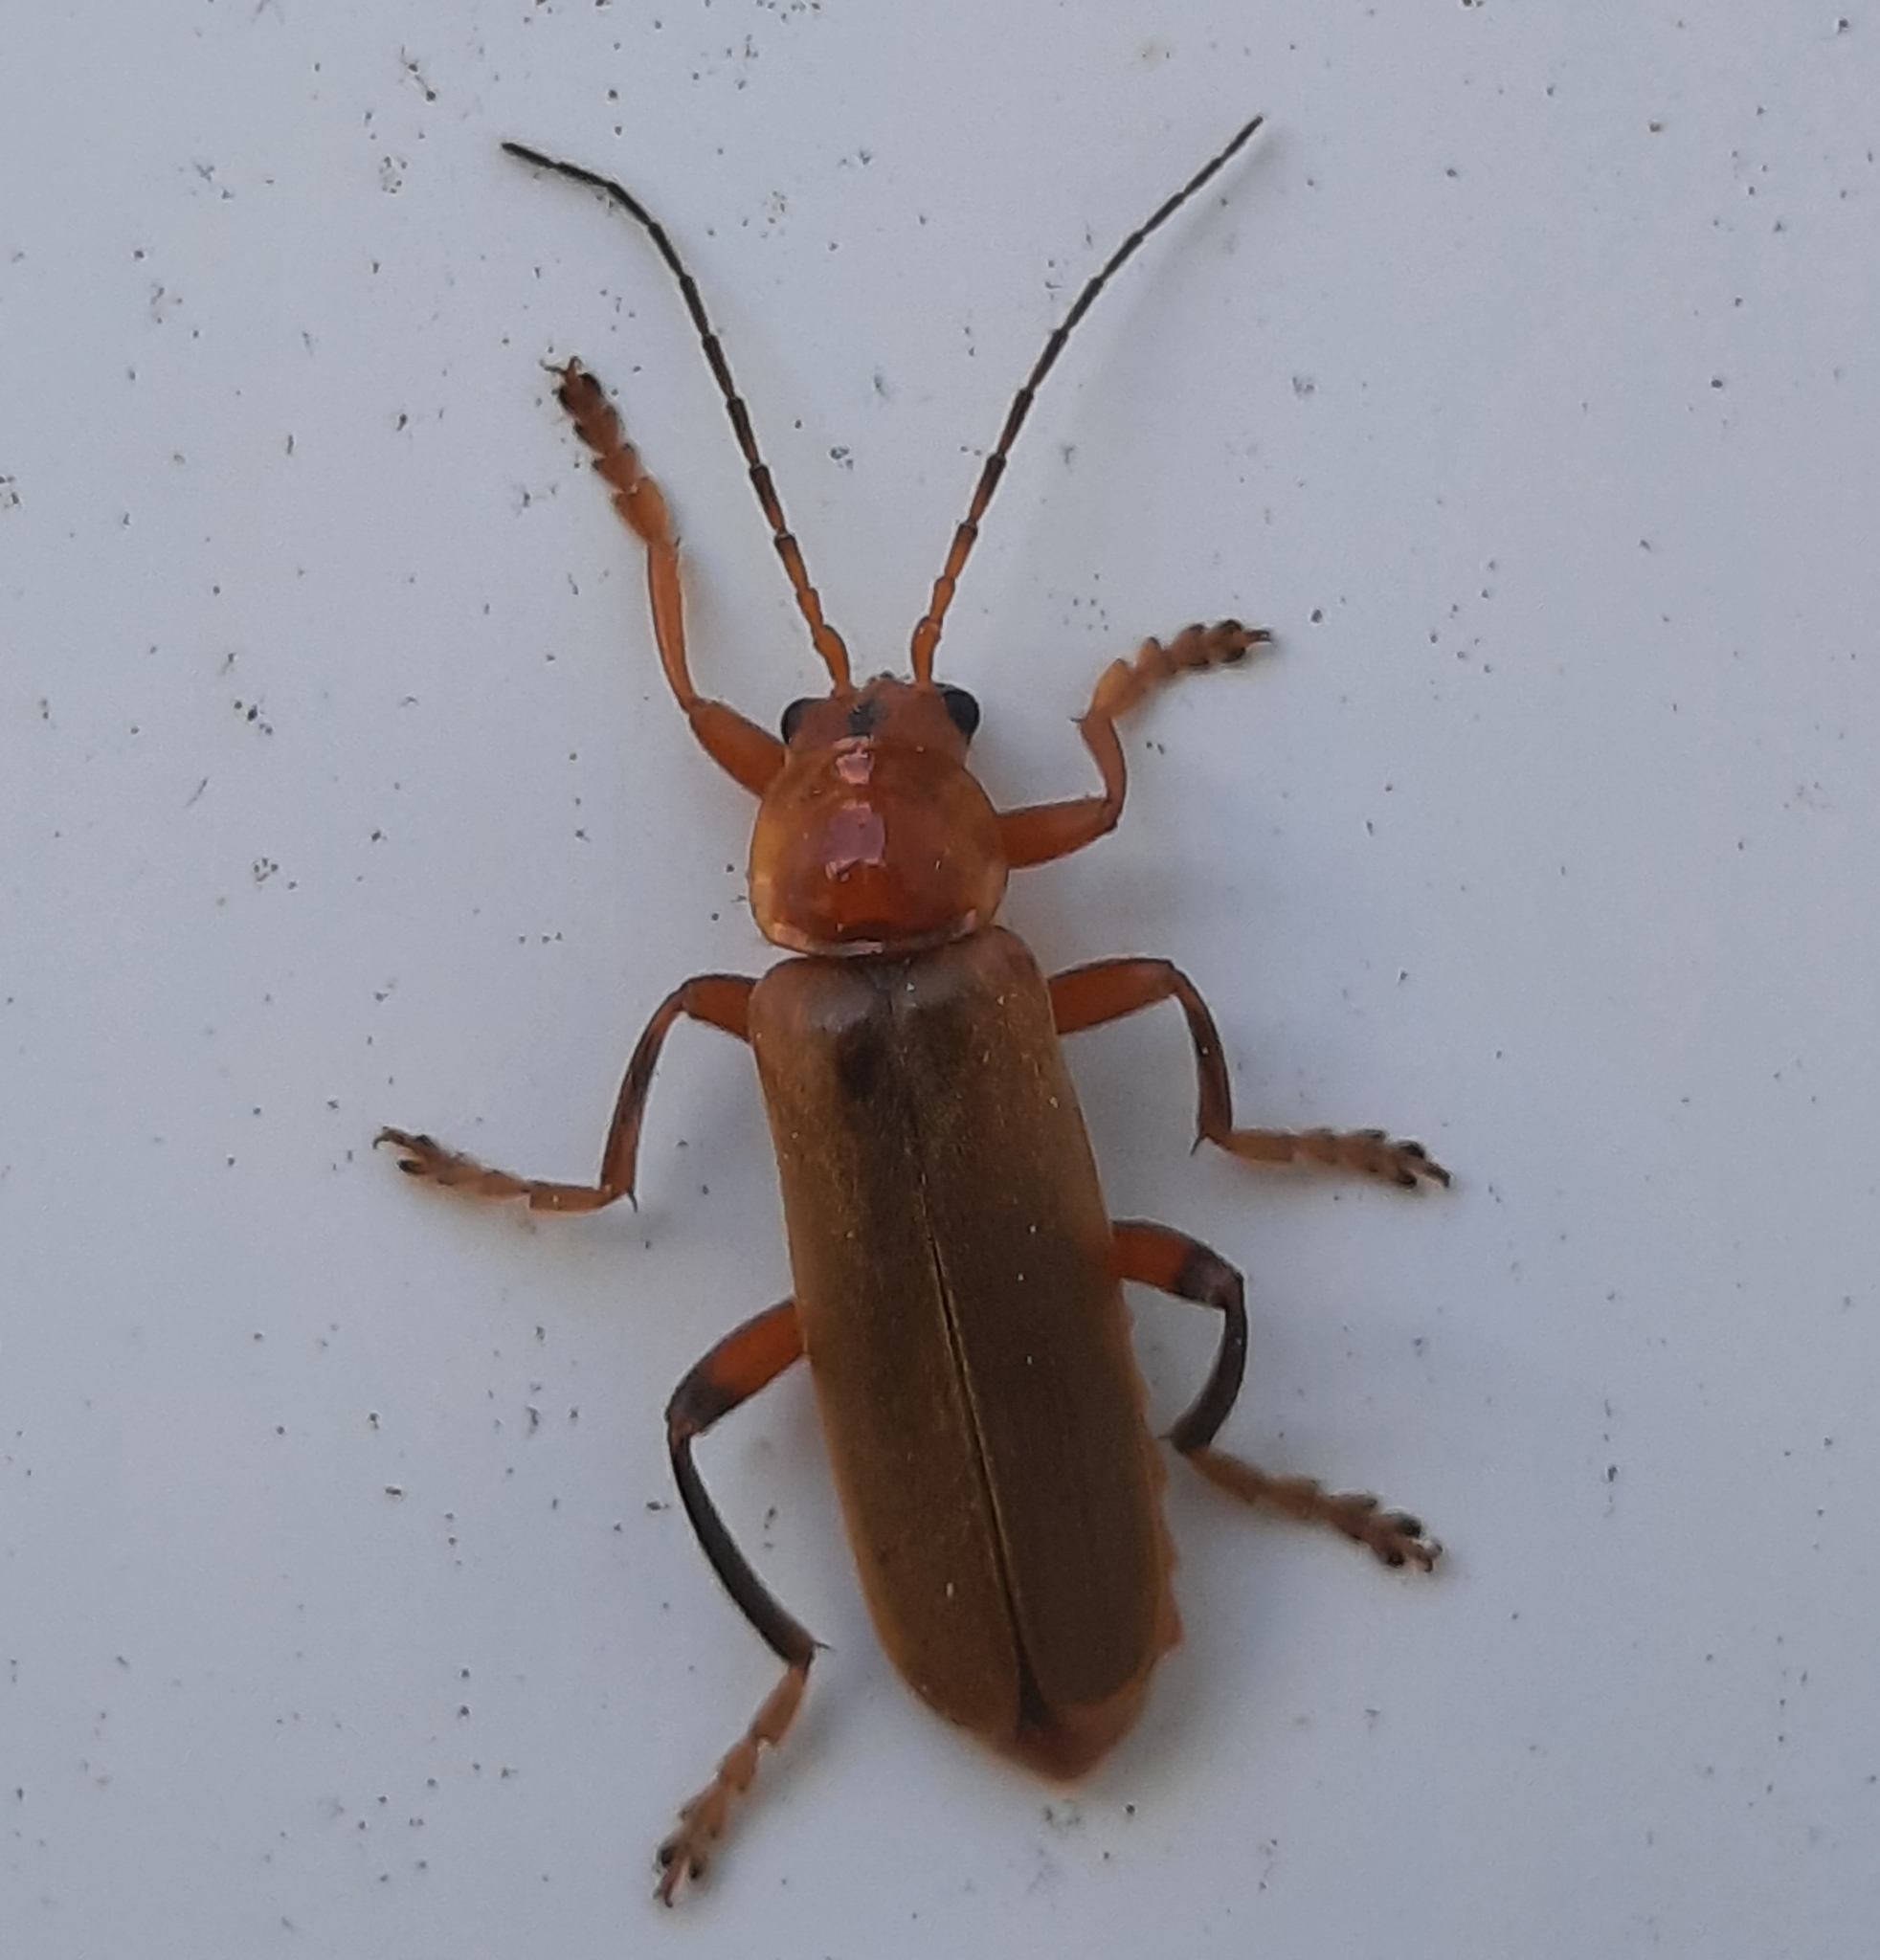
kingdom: Animalia
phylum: Arthropoda
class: Insecta
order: Coleoptera
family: Cantharidae
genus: Cantharis
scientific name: Cantharis livida
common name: Livid soldier beetle
